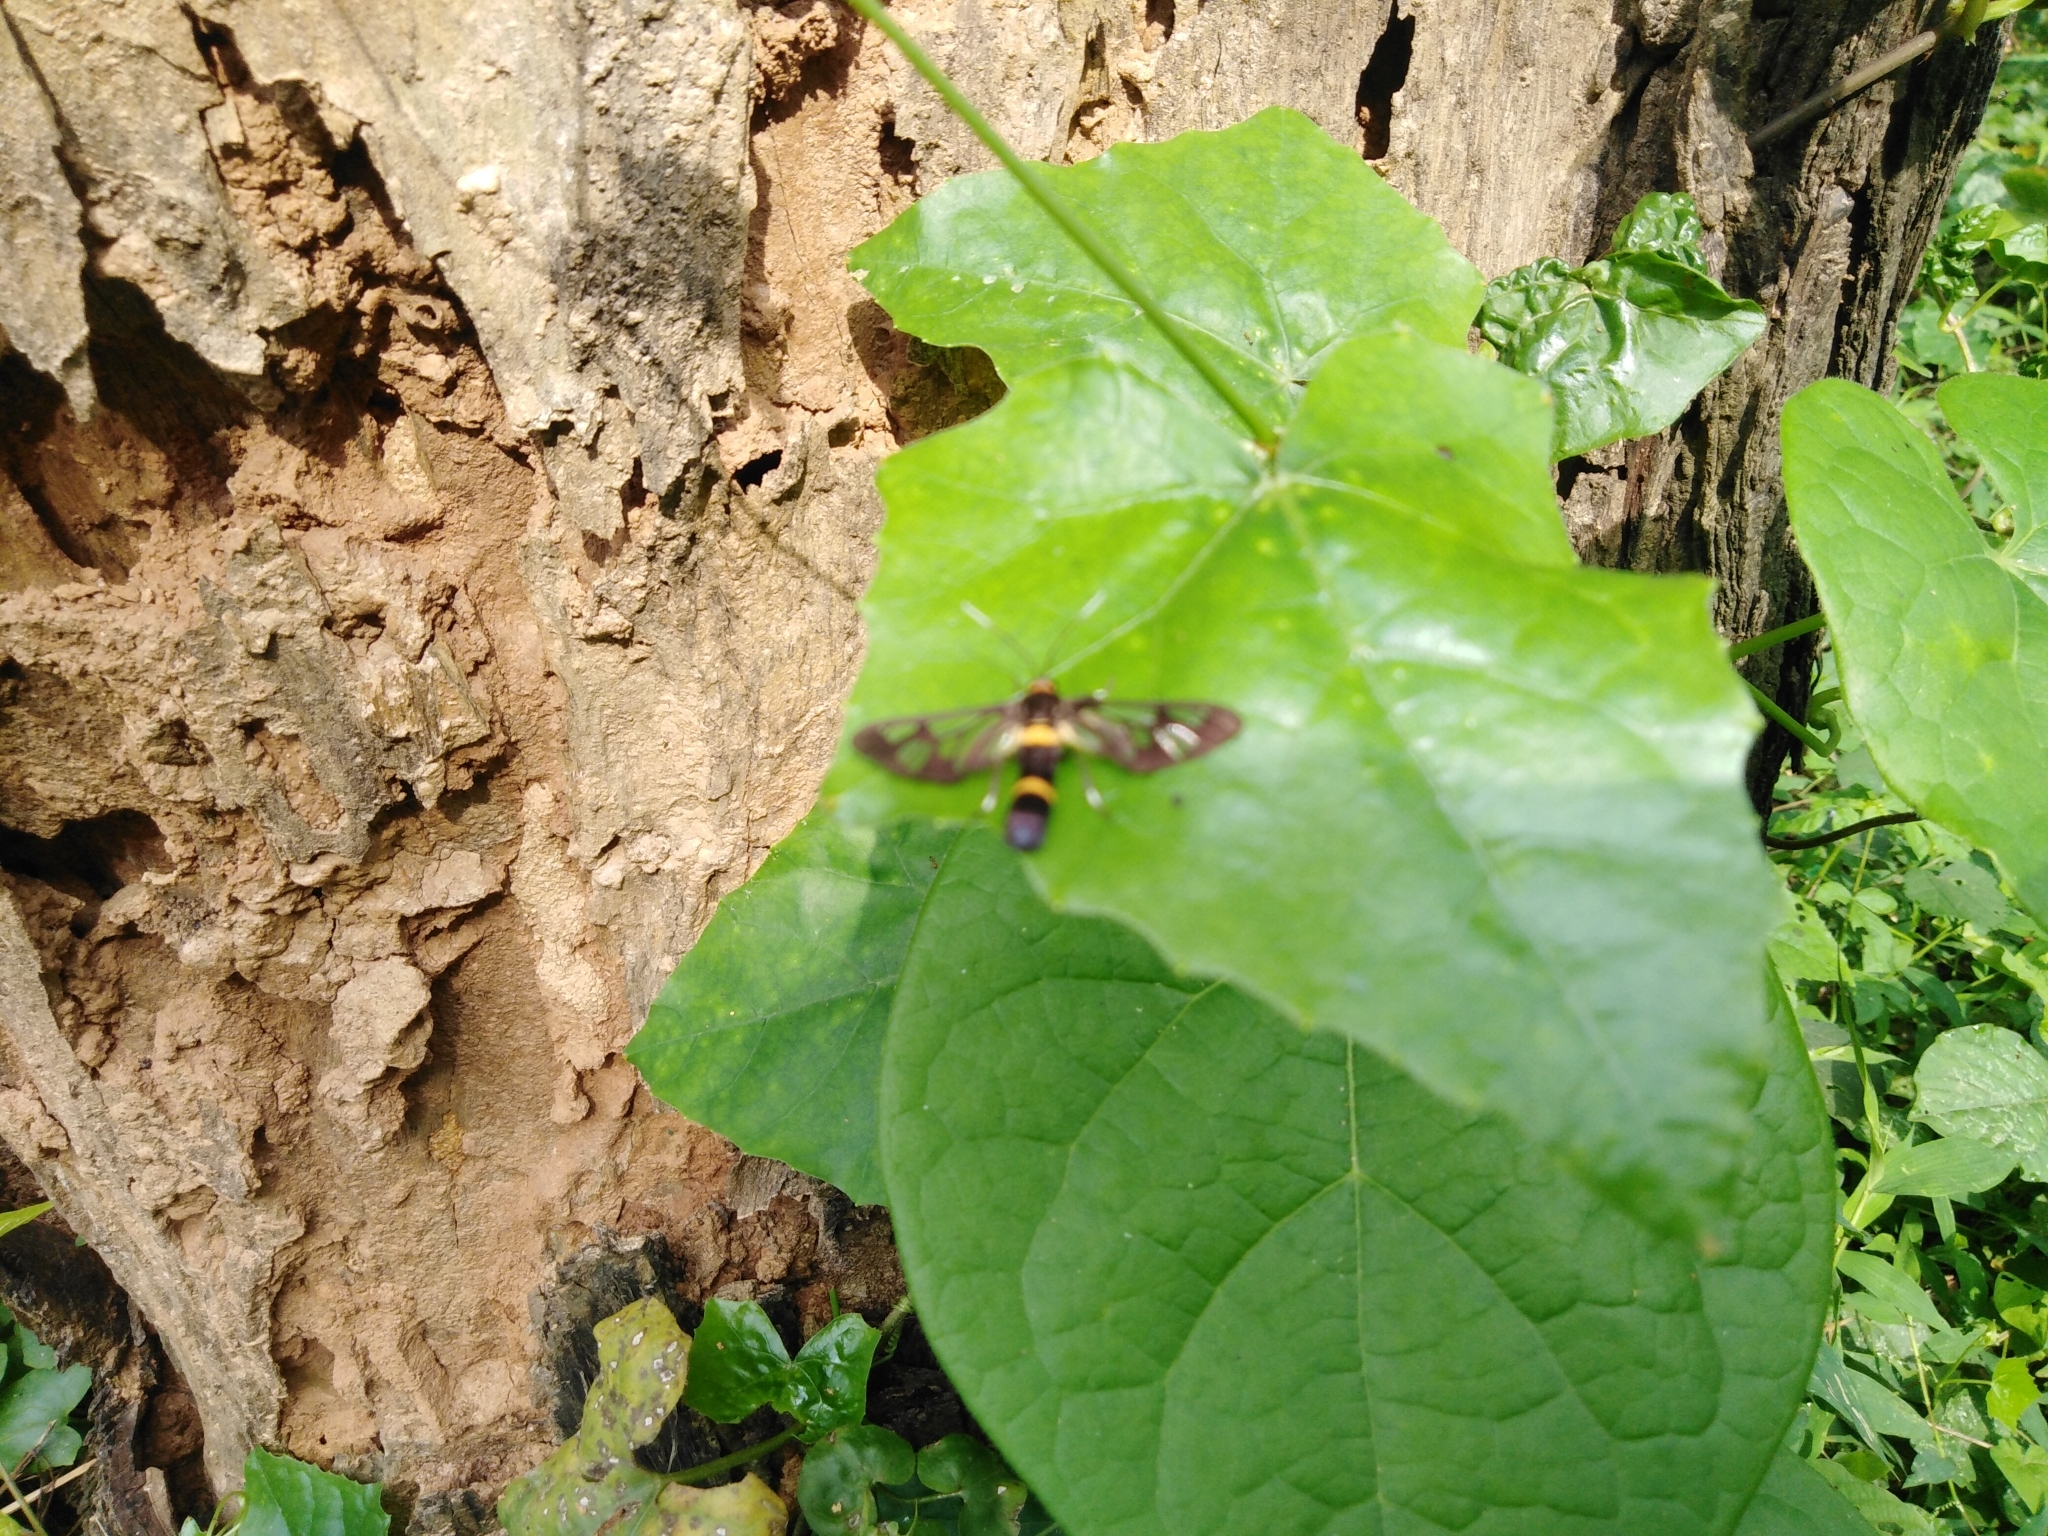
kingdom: Animalia
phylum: Arthropoda
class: Insecta
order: Lepidoptera
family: Erebidae
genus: Syntomoides
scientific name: Syntomoides imaon
